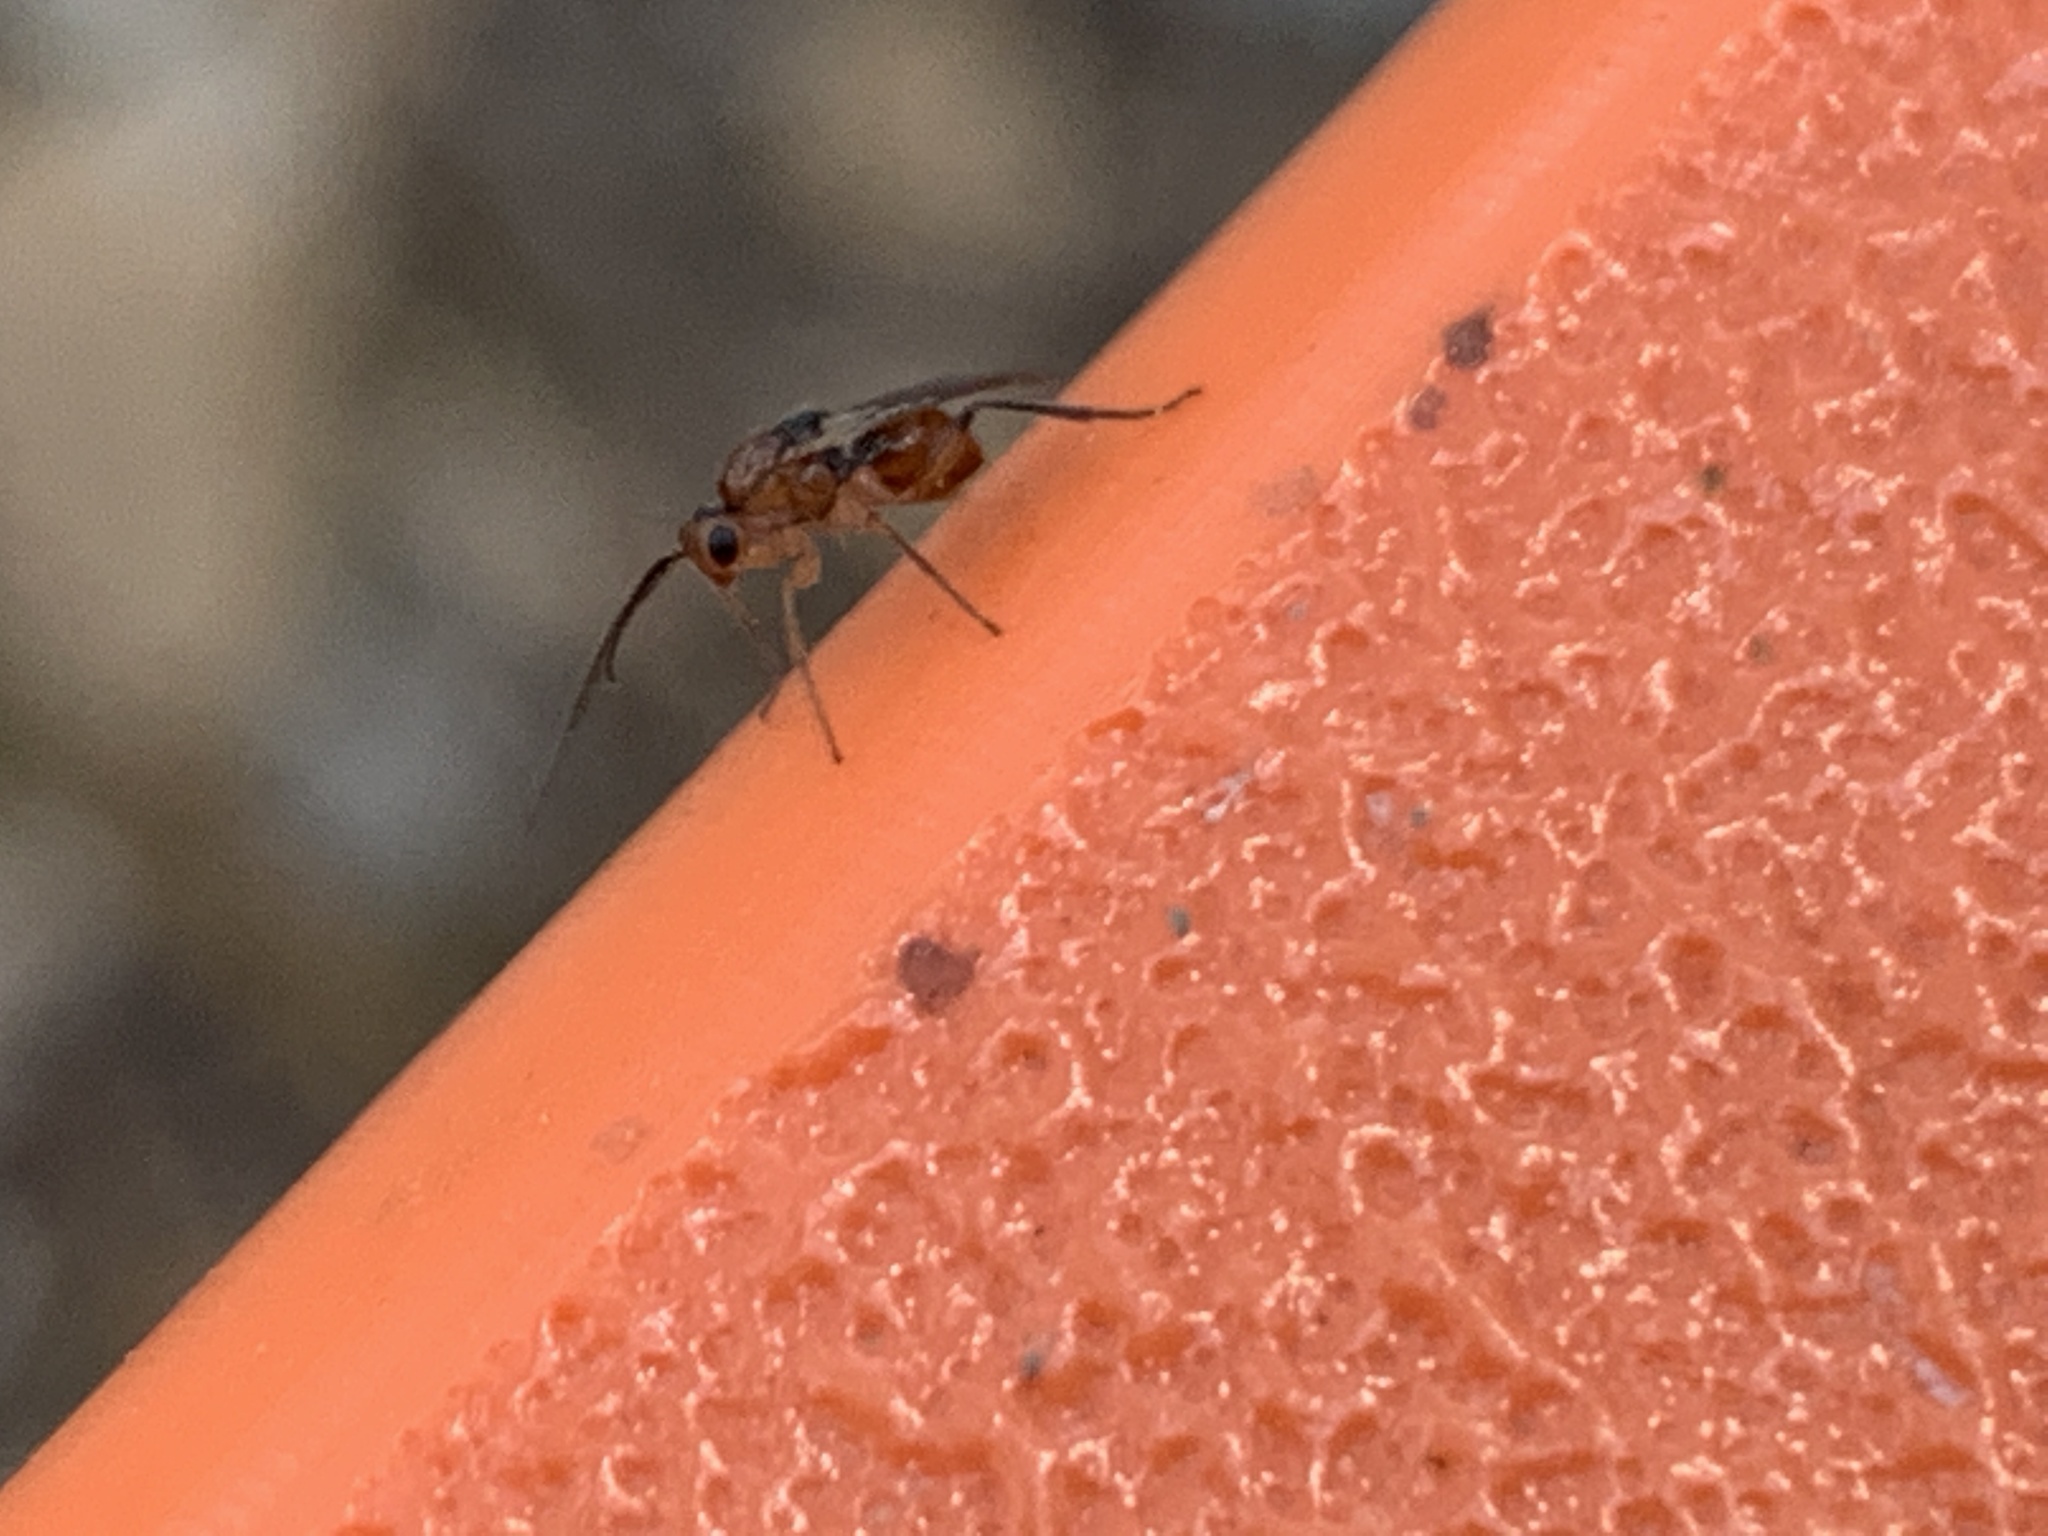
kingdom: Animalia
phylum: Arthropoda
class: Insecta
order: Hymenoptera
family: Cynipidae
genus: Belonocnema
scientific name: Belonocnema kinseyi
